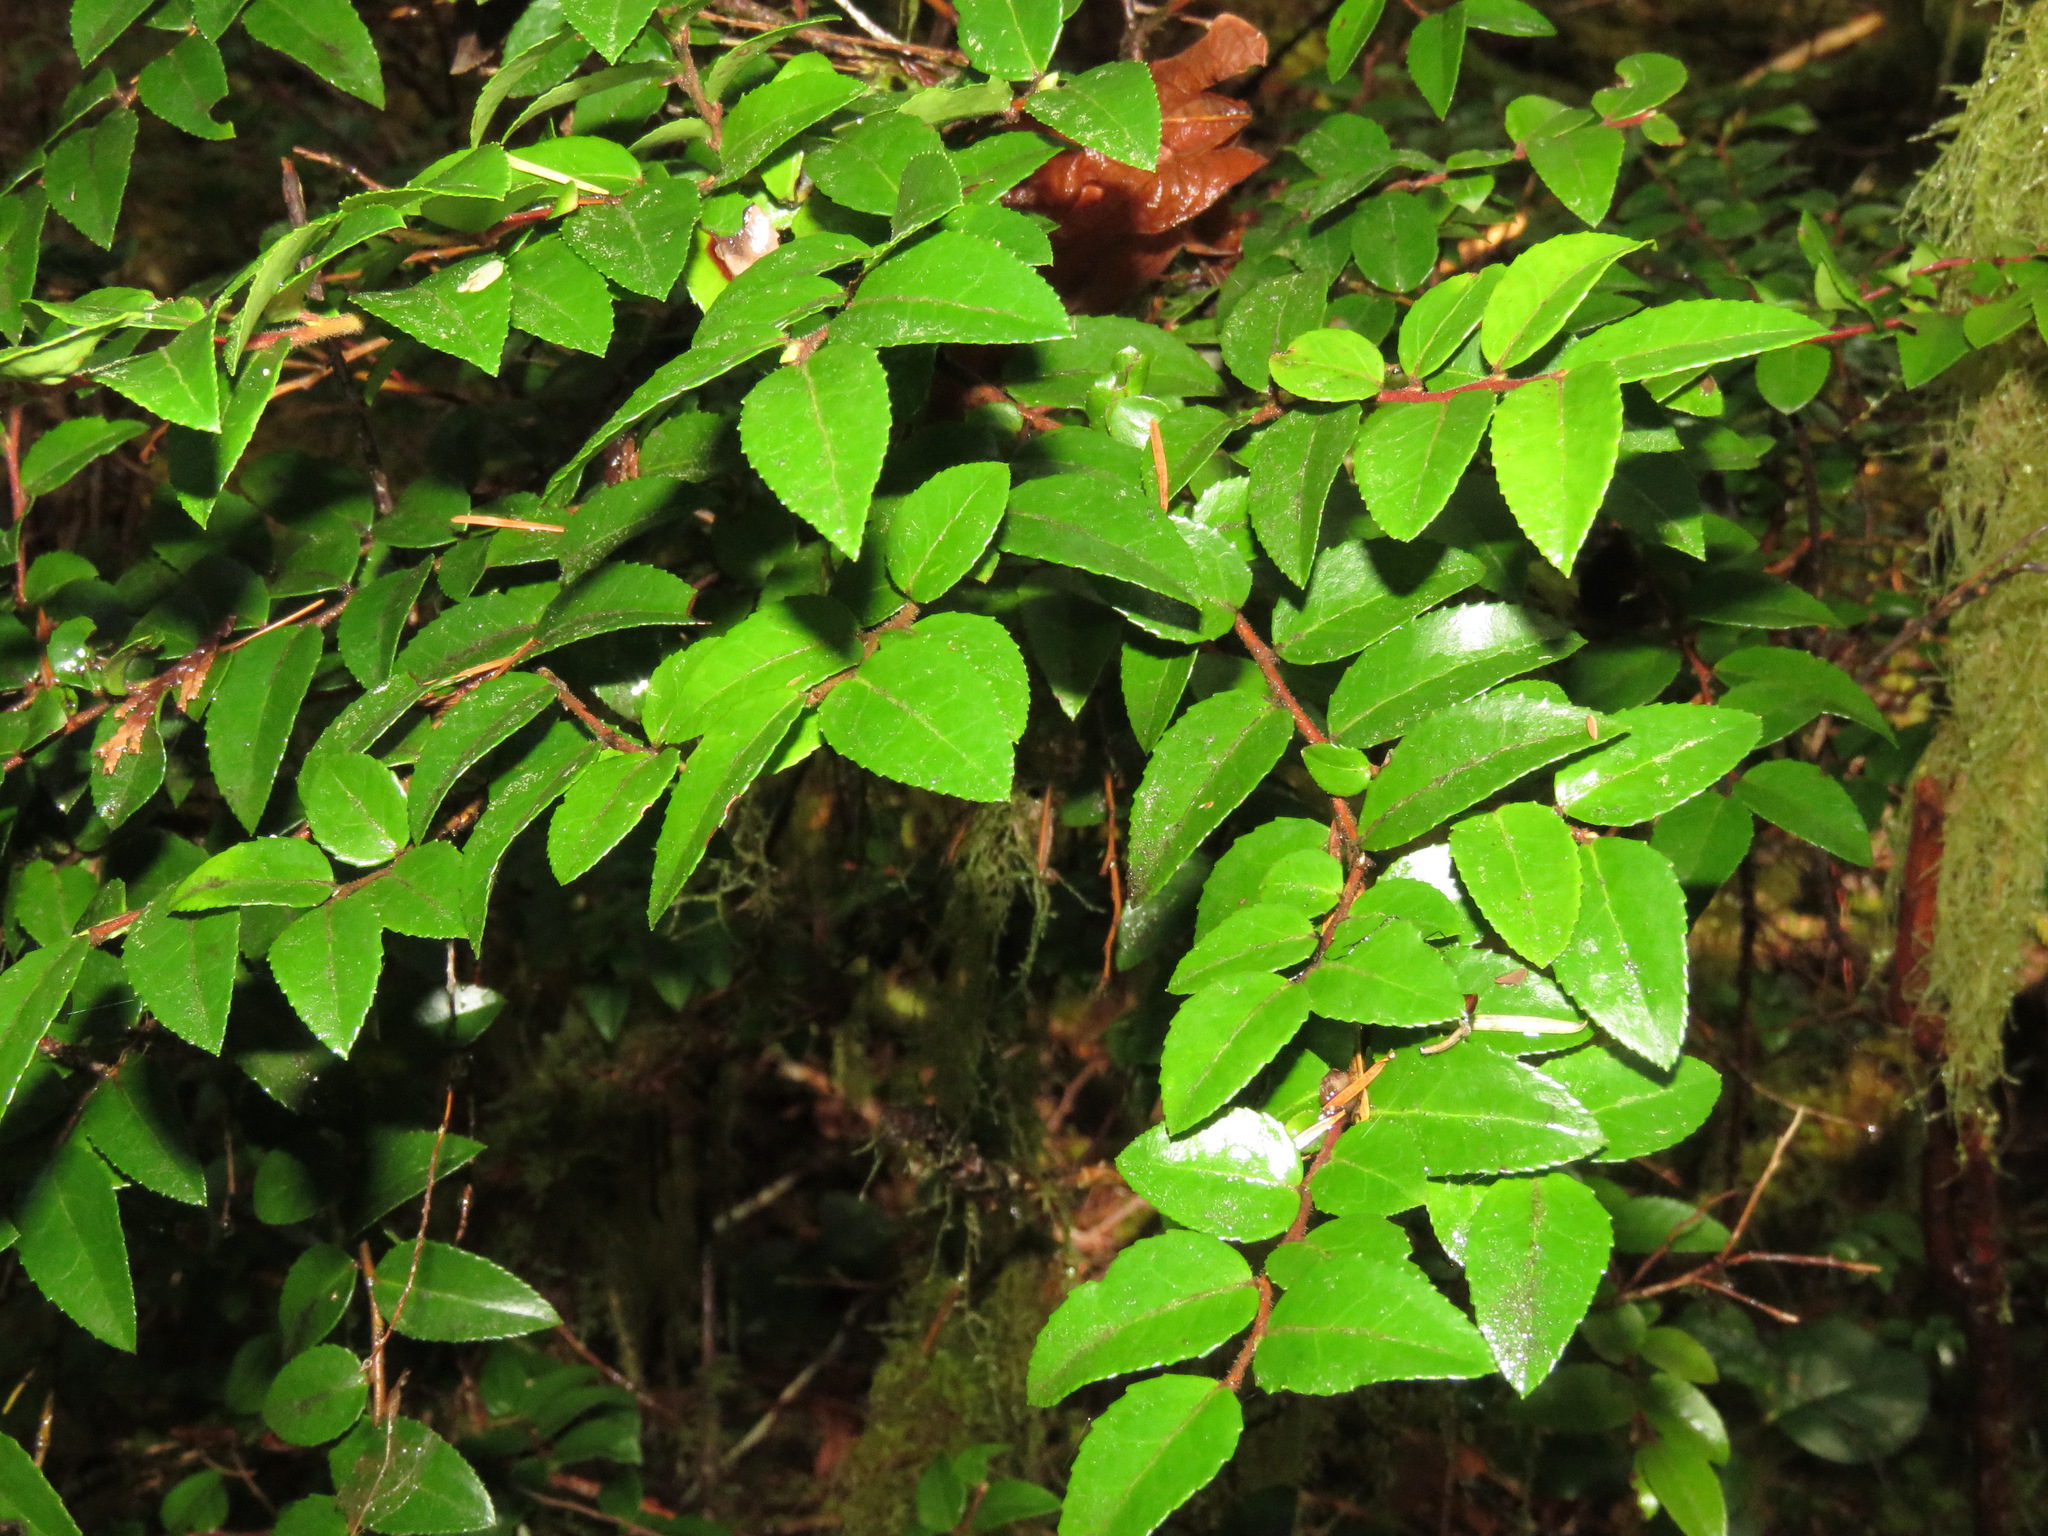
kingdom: Plantae
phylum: Tracheophyta
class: Magnoliopsida
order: Ericales
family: Ericaceae
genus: Vaccinium
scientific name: Vaccinium ovatum
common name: California-huckleberry
